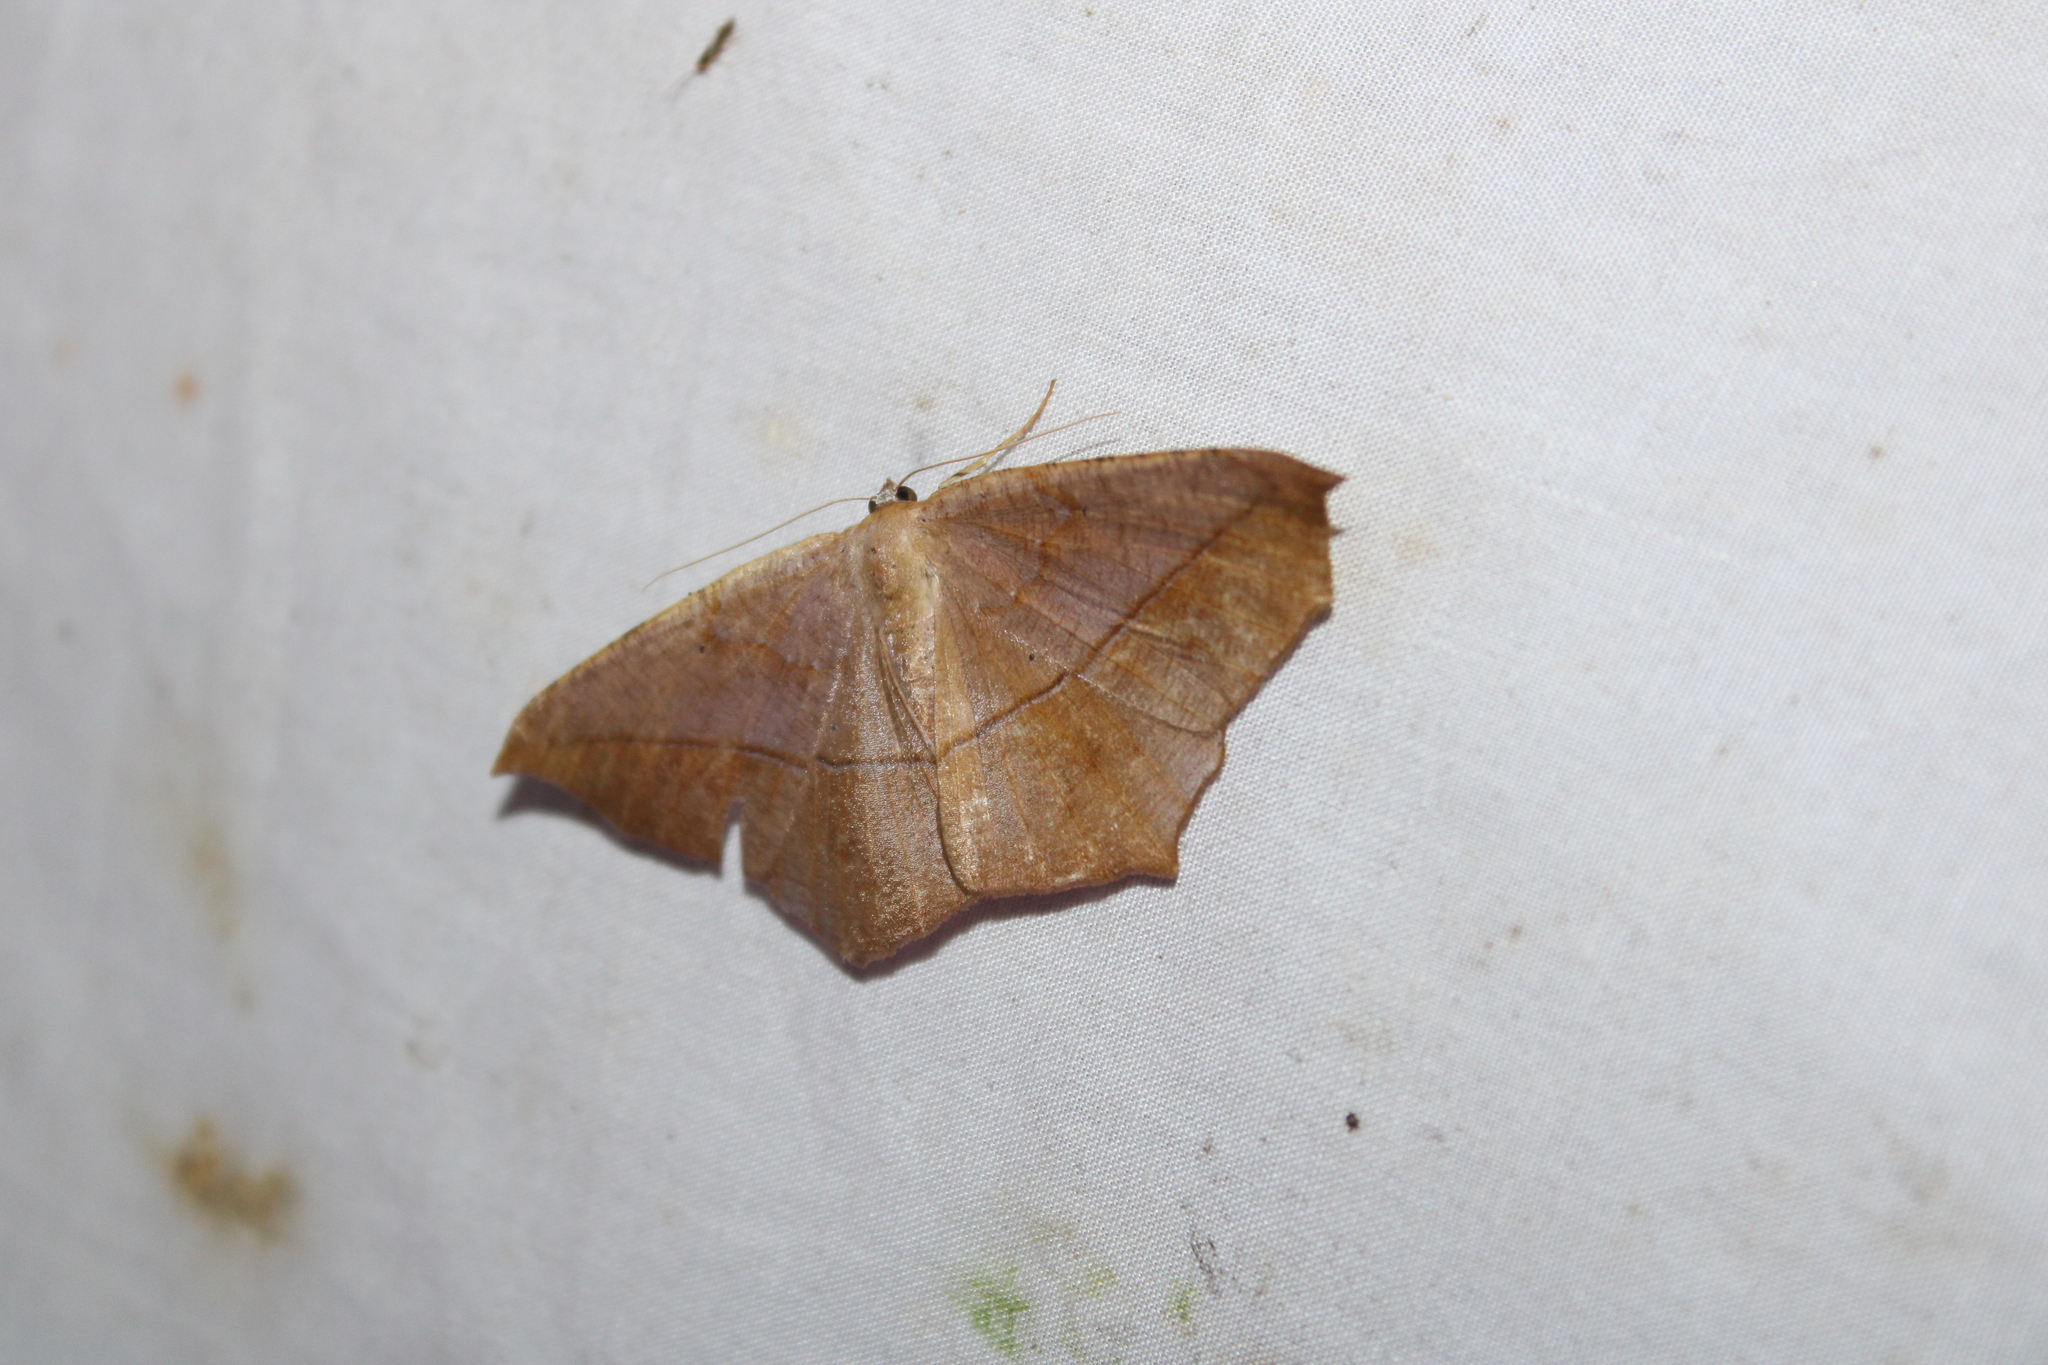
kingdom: Animalia
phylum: Arthropoda
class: Insecta
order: Lepidoptera
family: Geometridae
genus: Prochoerodes
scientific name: Prochoerodes lineola
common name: Large maple spanworm
